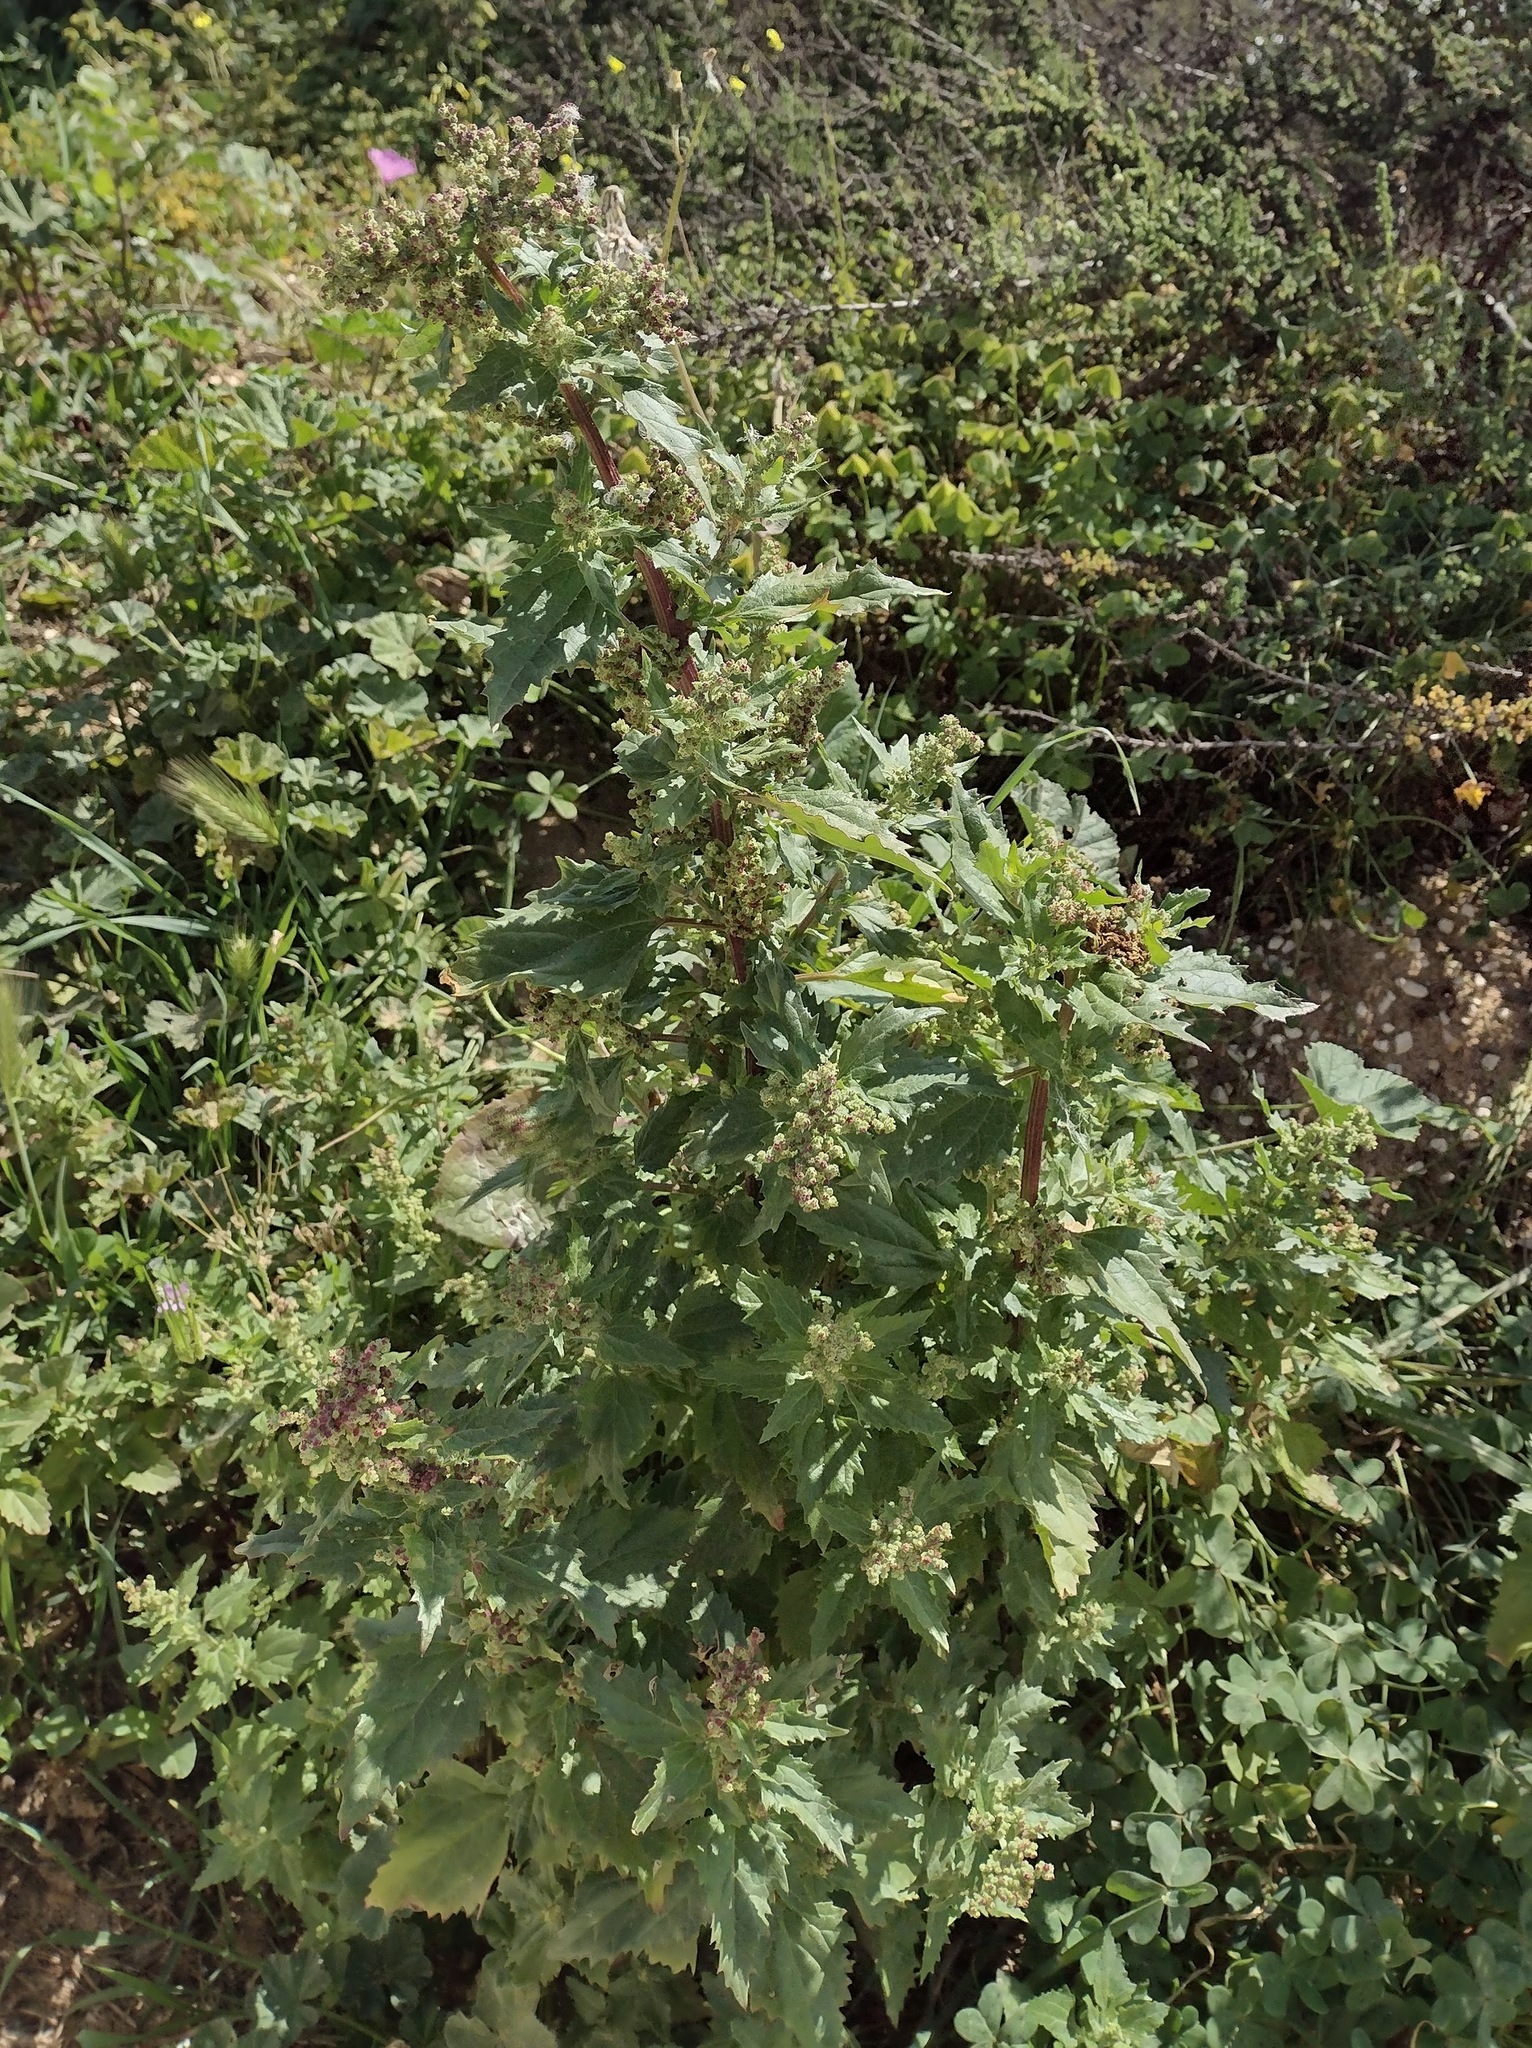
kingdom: Plantae
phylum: Tracheophyta
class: Magnoliopsida
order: Caryophyllales
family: Amaranthaceae
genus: Chenopodiastrum
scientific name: Chenopodiastrum murale
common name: Sowbane
